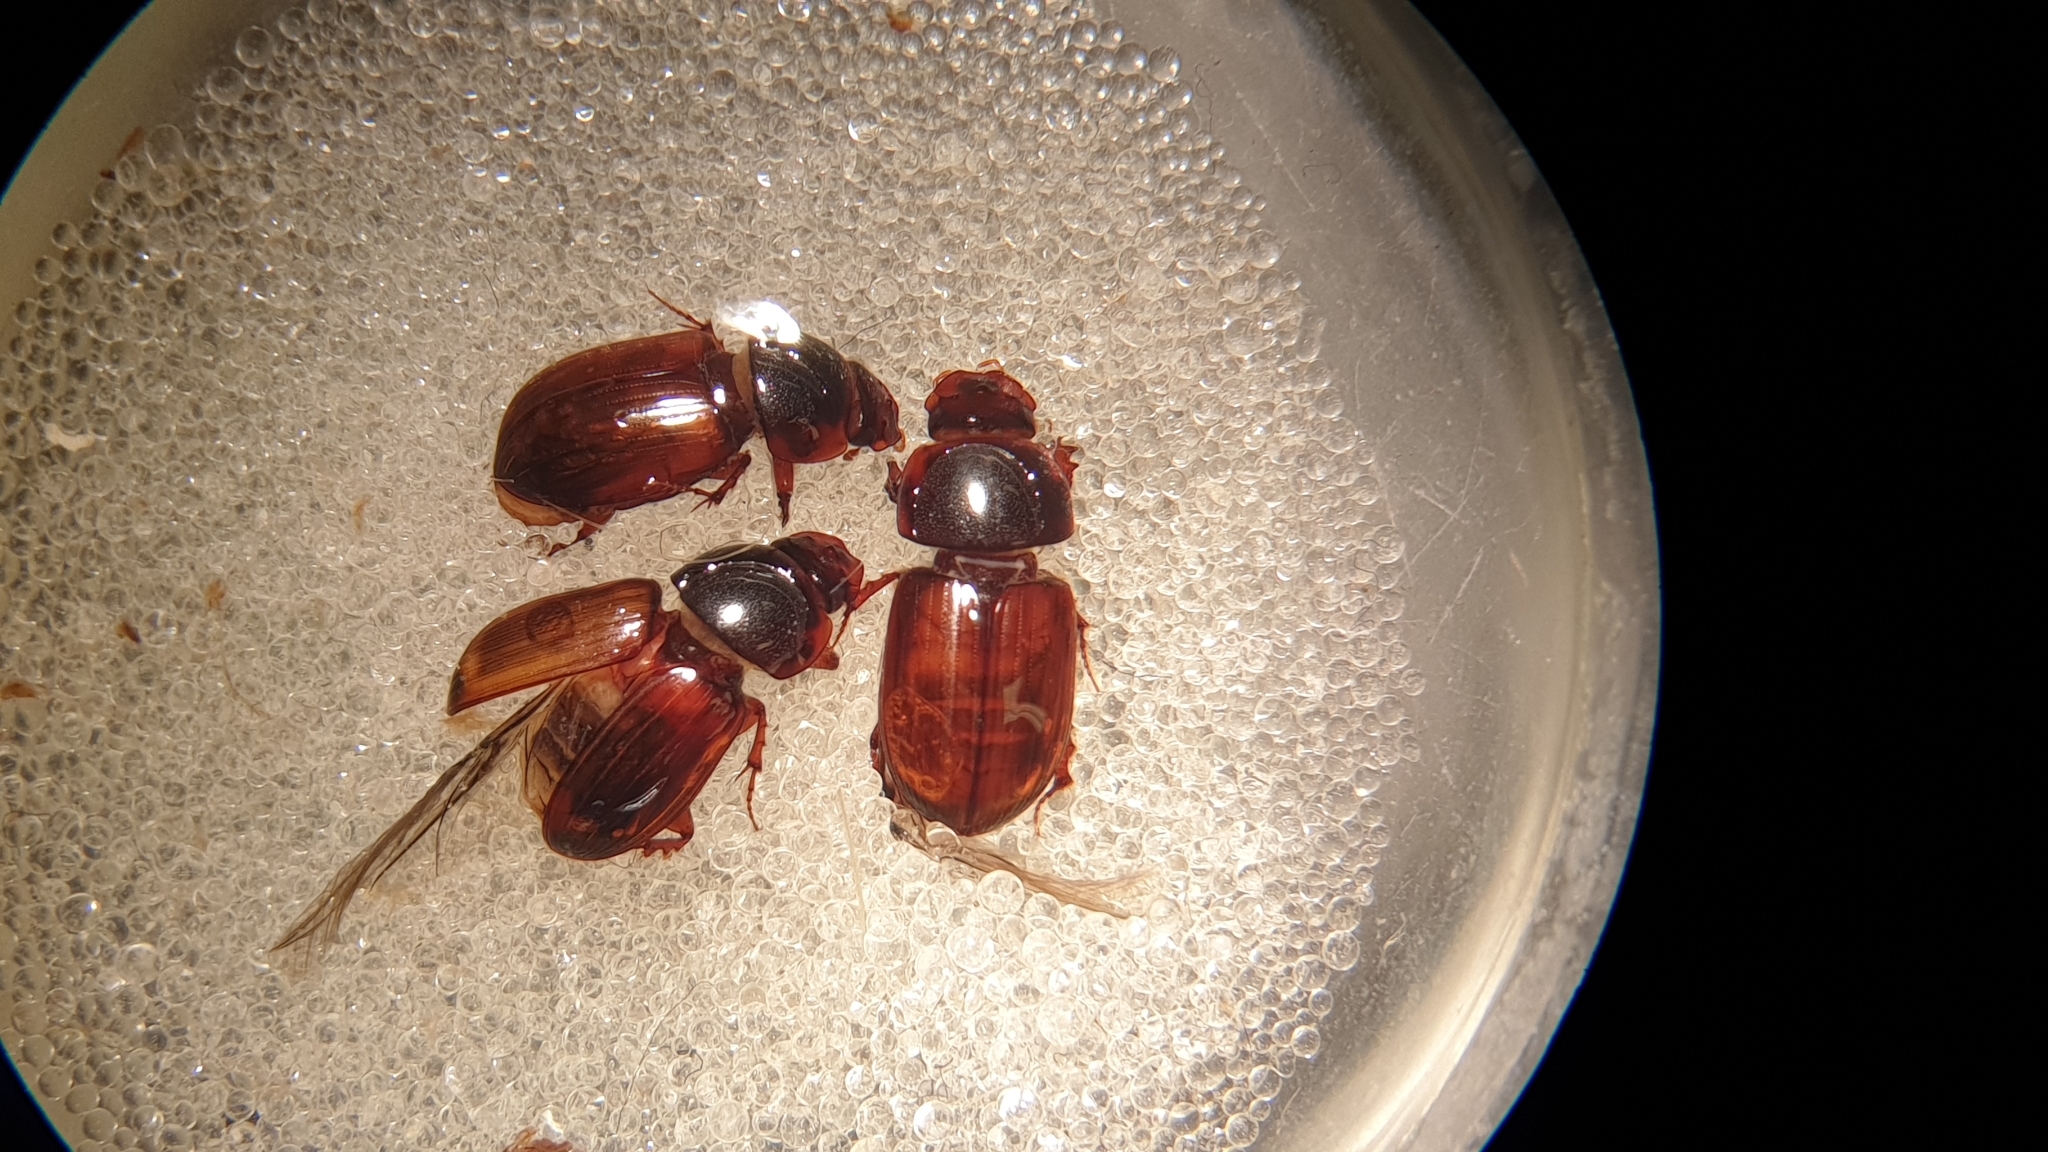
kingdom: Animalia
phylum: Arthropoda
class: Insecta
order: Coleoptera
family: Scarabaeidae
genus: Bodilopsis
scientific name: Bodilopsis rufus
